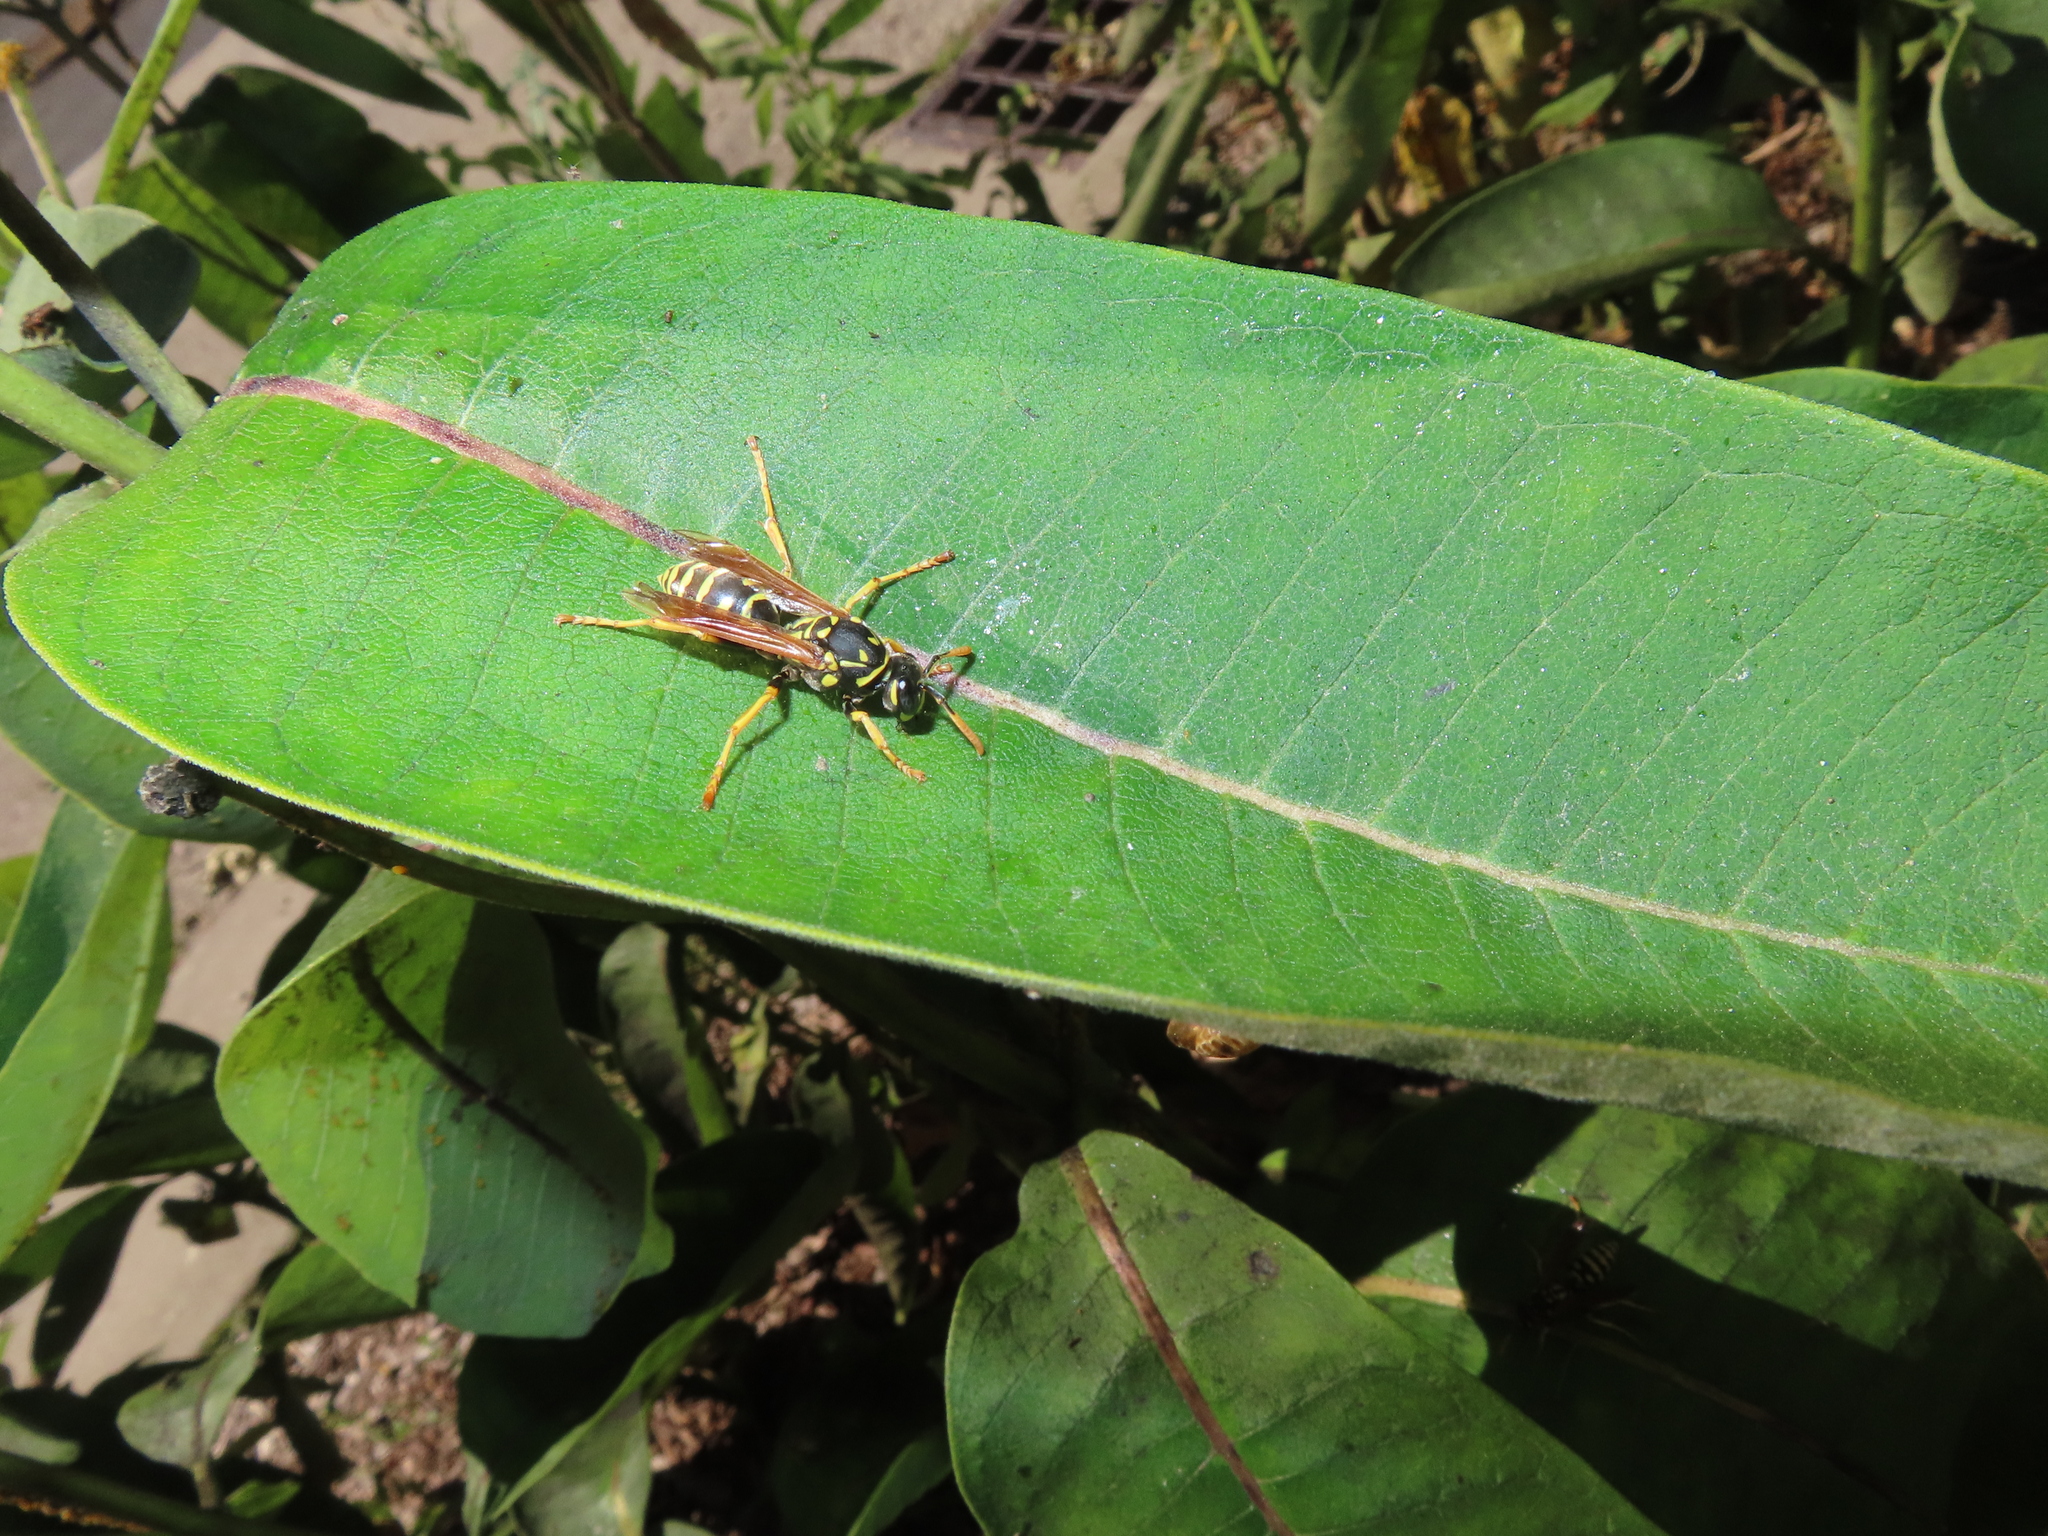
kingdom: Animalia
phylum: Arthropoda
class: Insecta
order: Hymenoptera
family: Eumenidae
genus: Polistes
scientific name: Polistes dominula
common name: Paper wasp
